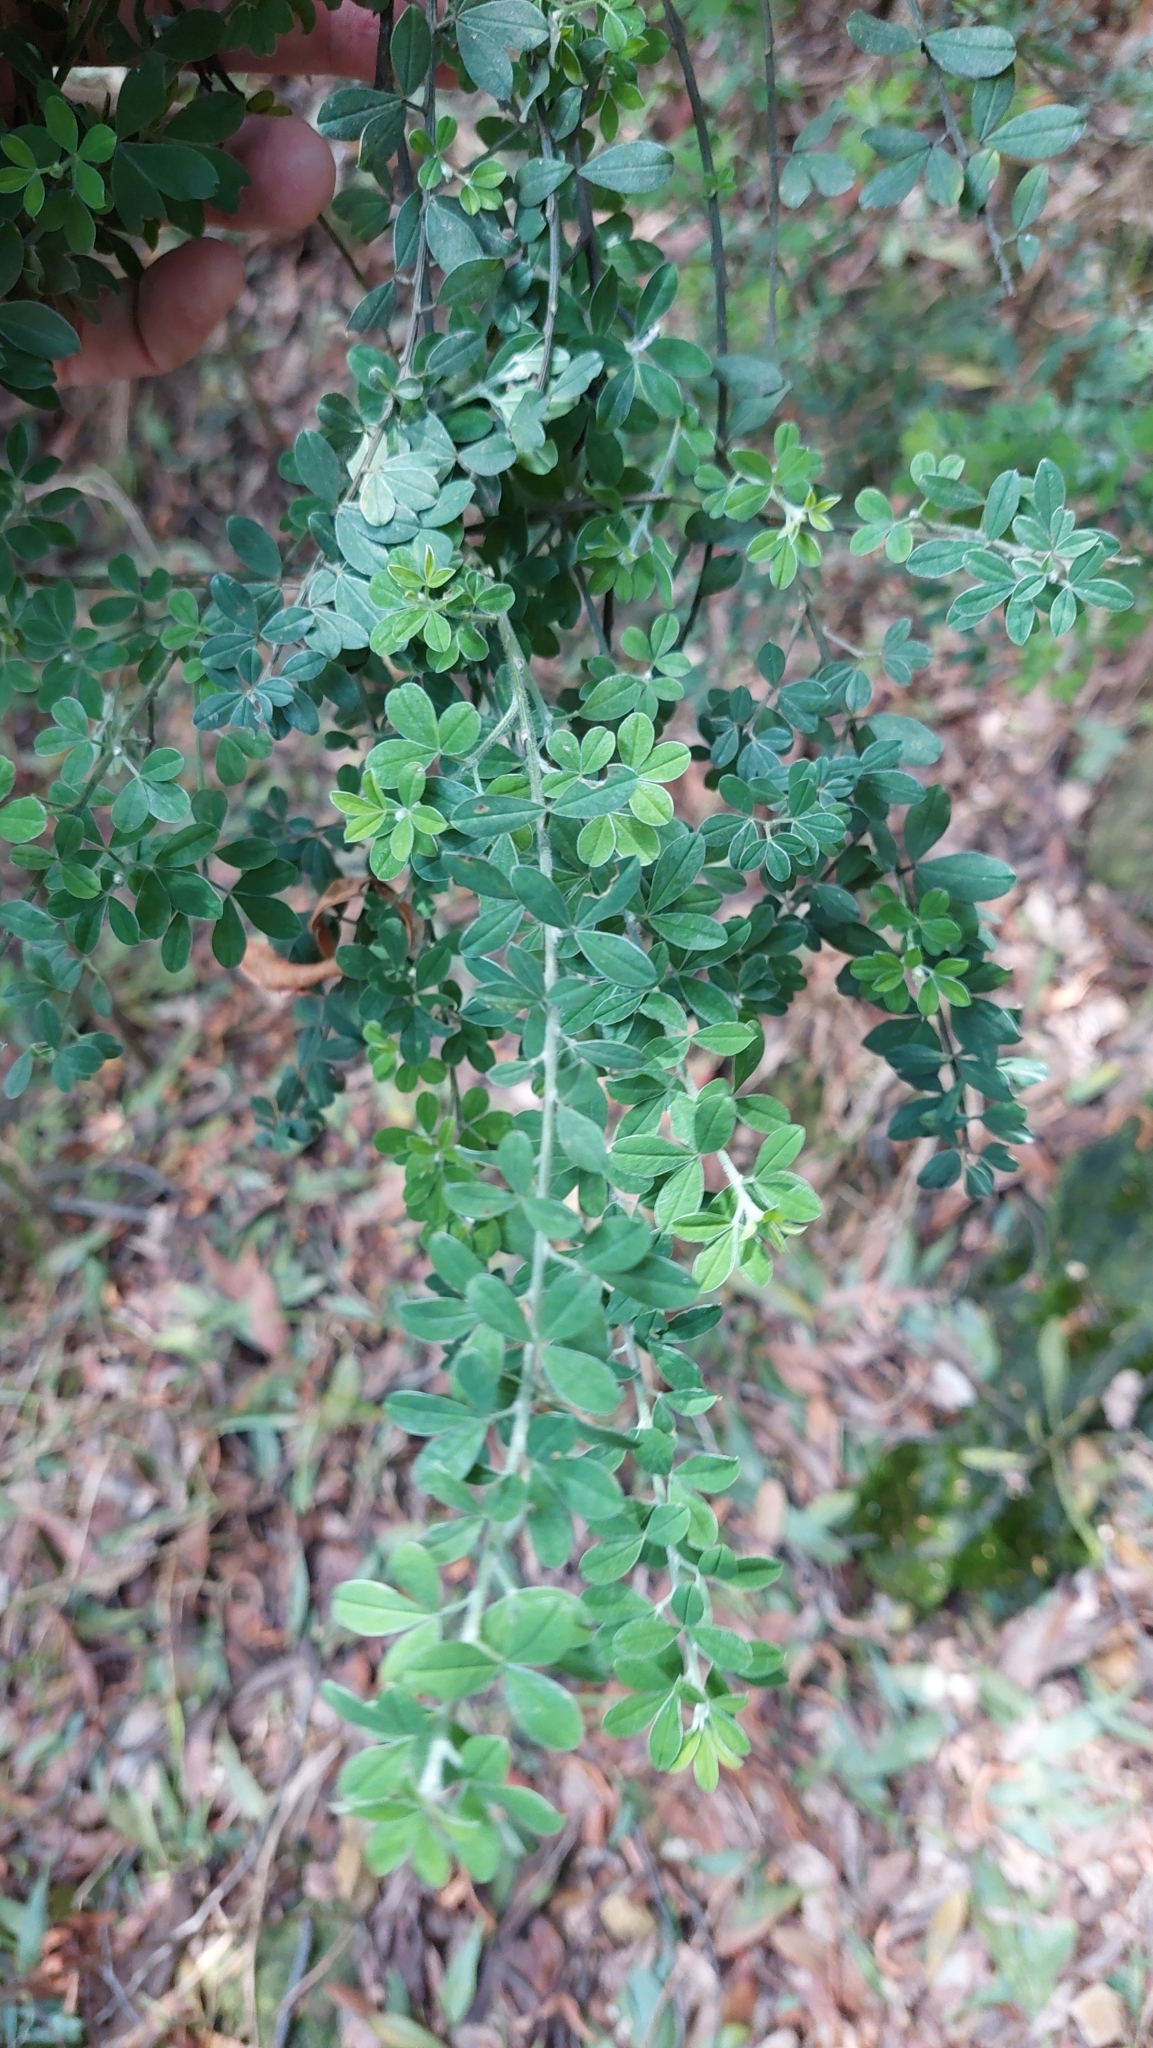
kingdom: Plantae
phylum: Tracheophyta
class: Magnoliopsida
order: Fabales
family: Fabaceae
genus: Genista
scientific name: Genista monspessulana
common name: Montpellier broom
